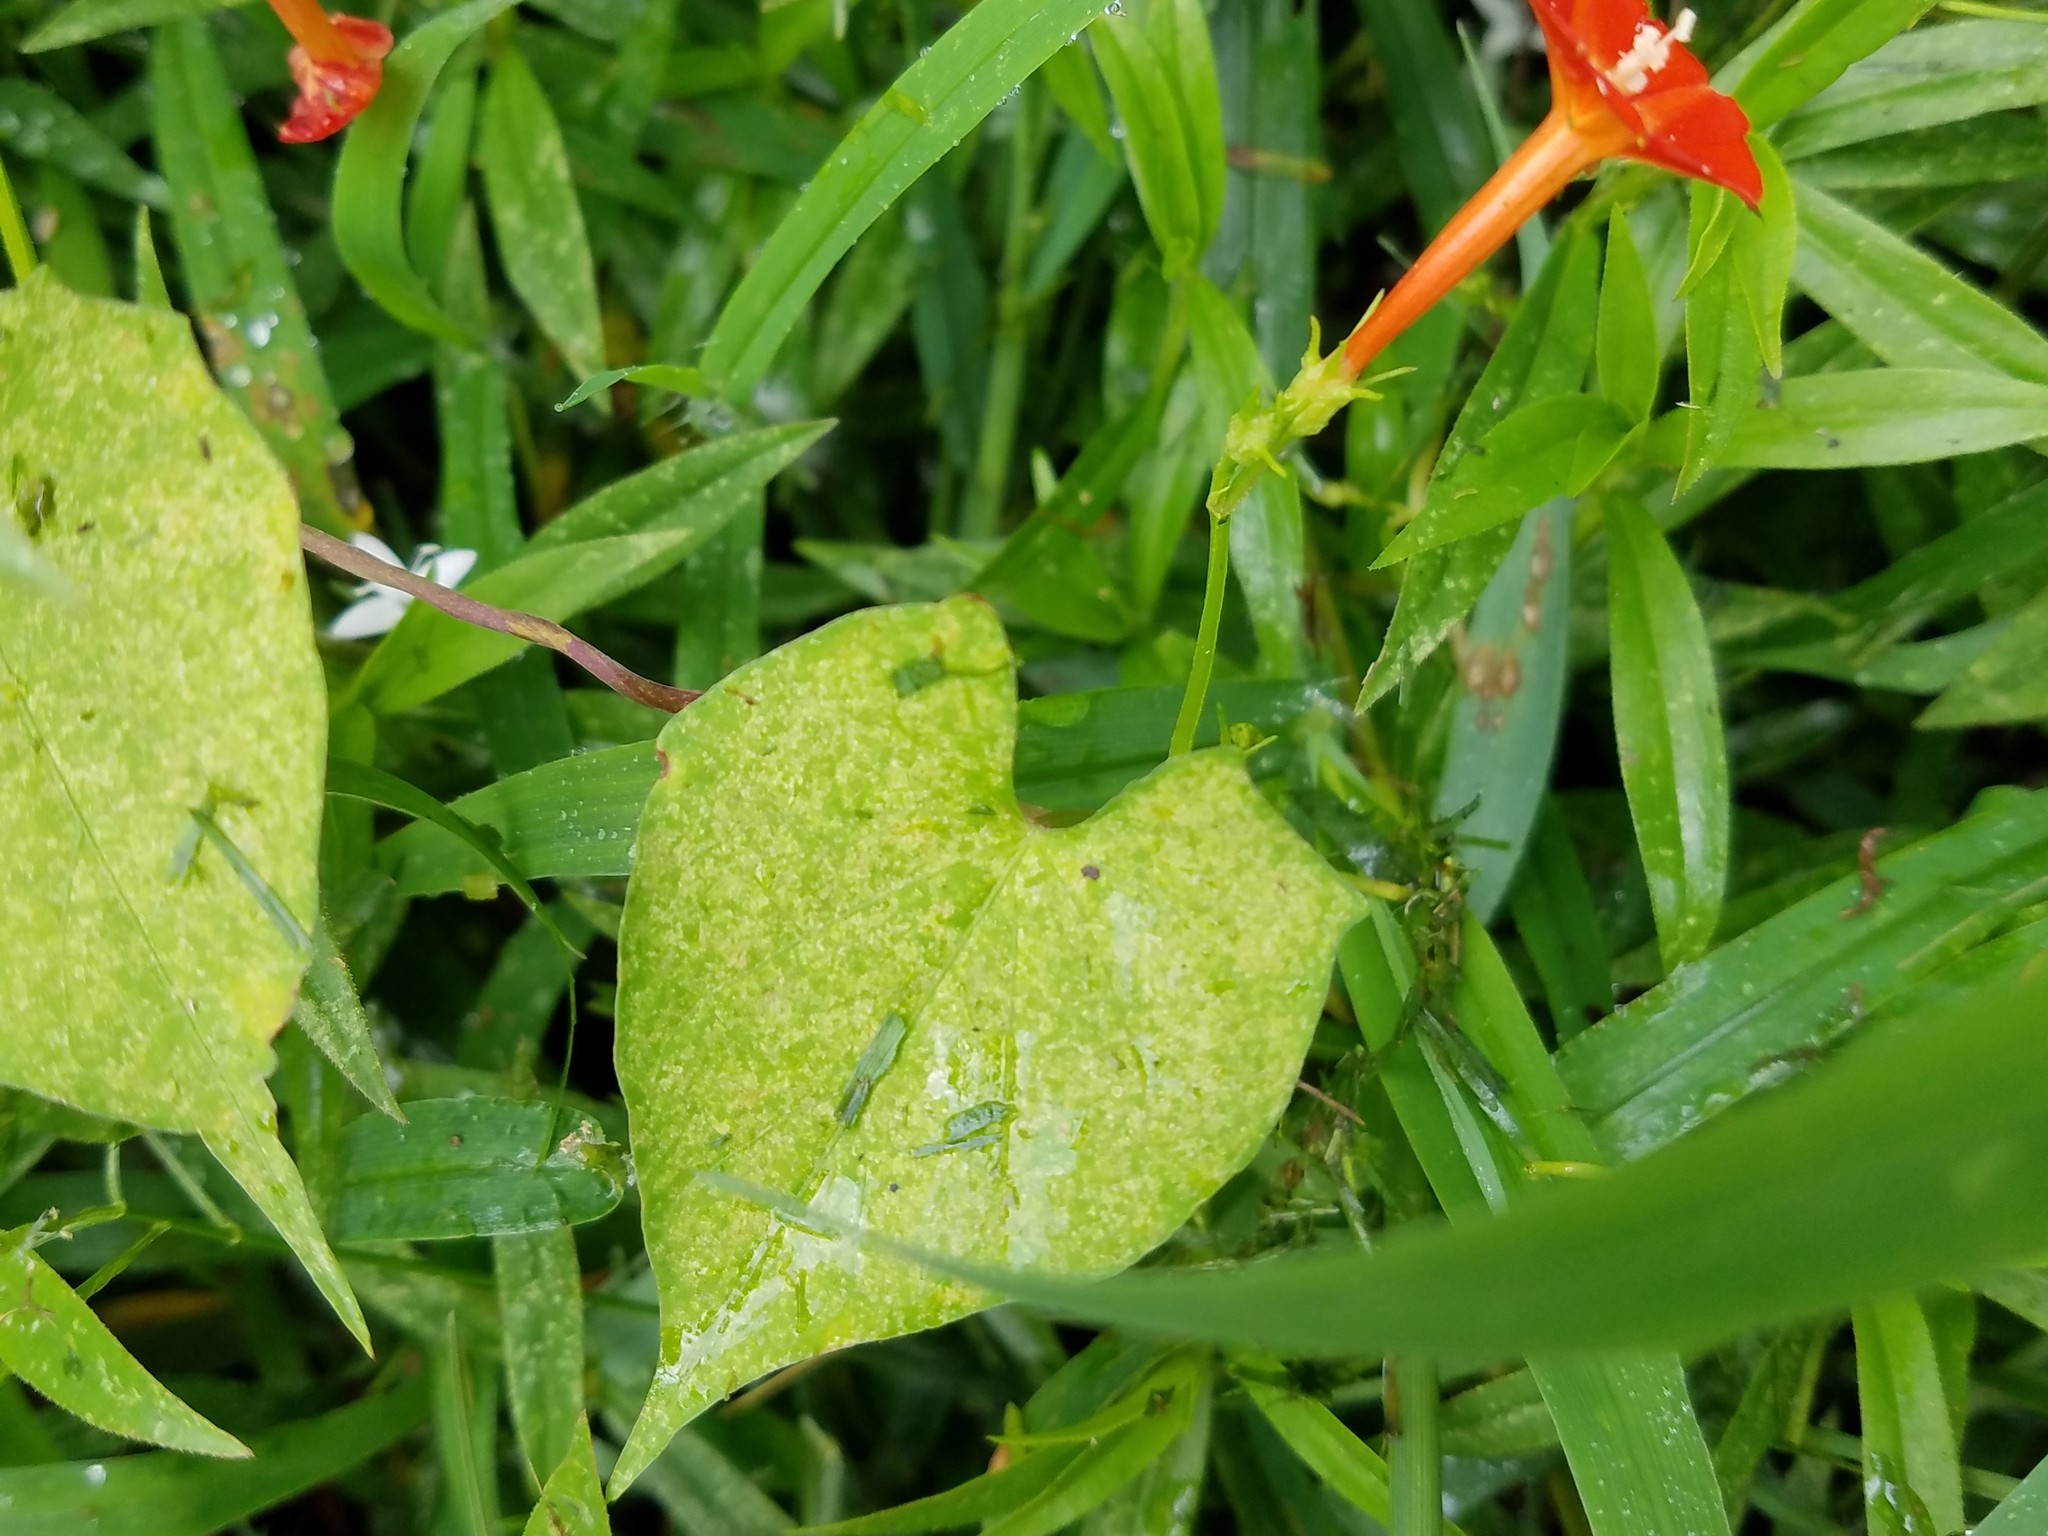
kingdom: Plantae
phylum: Tracheophyta
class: Magnoliopsida
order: Solanales
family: Convolvulaceae
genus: Ipomoea
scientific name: Ipomoea coccinea
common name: Red morning-glory
